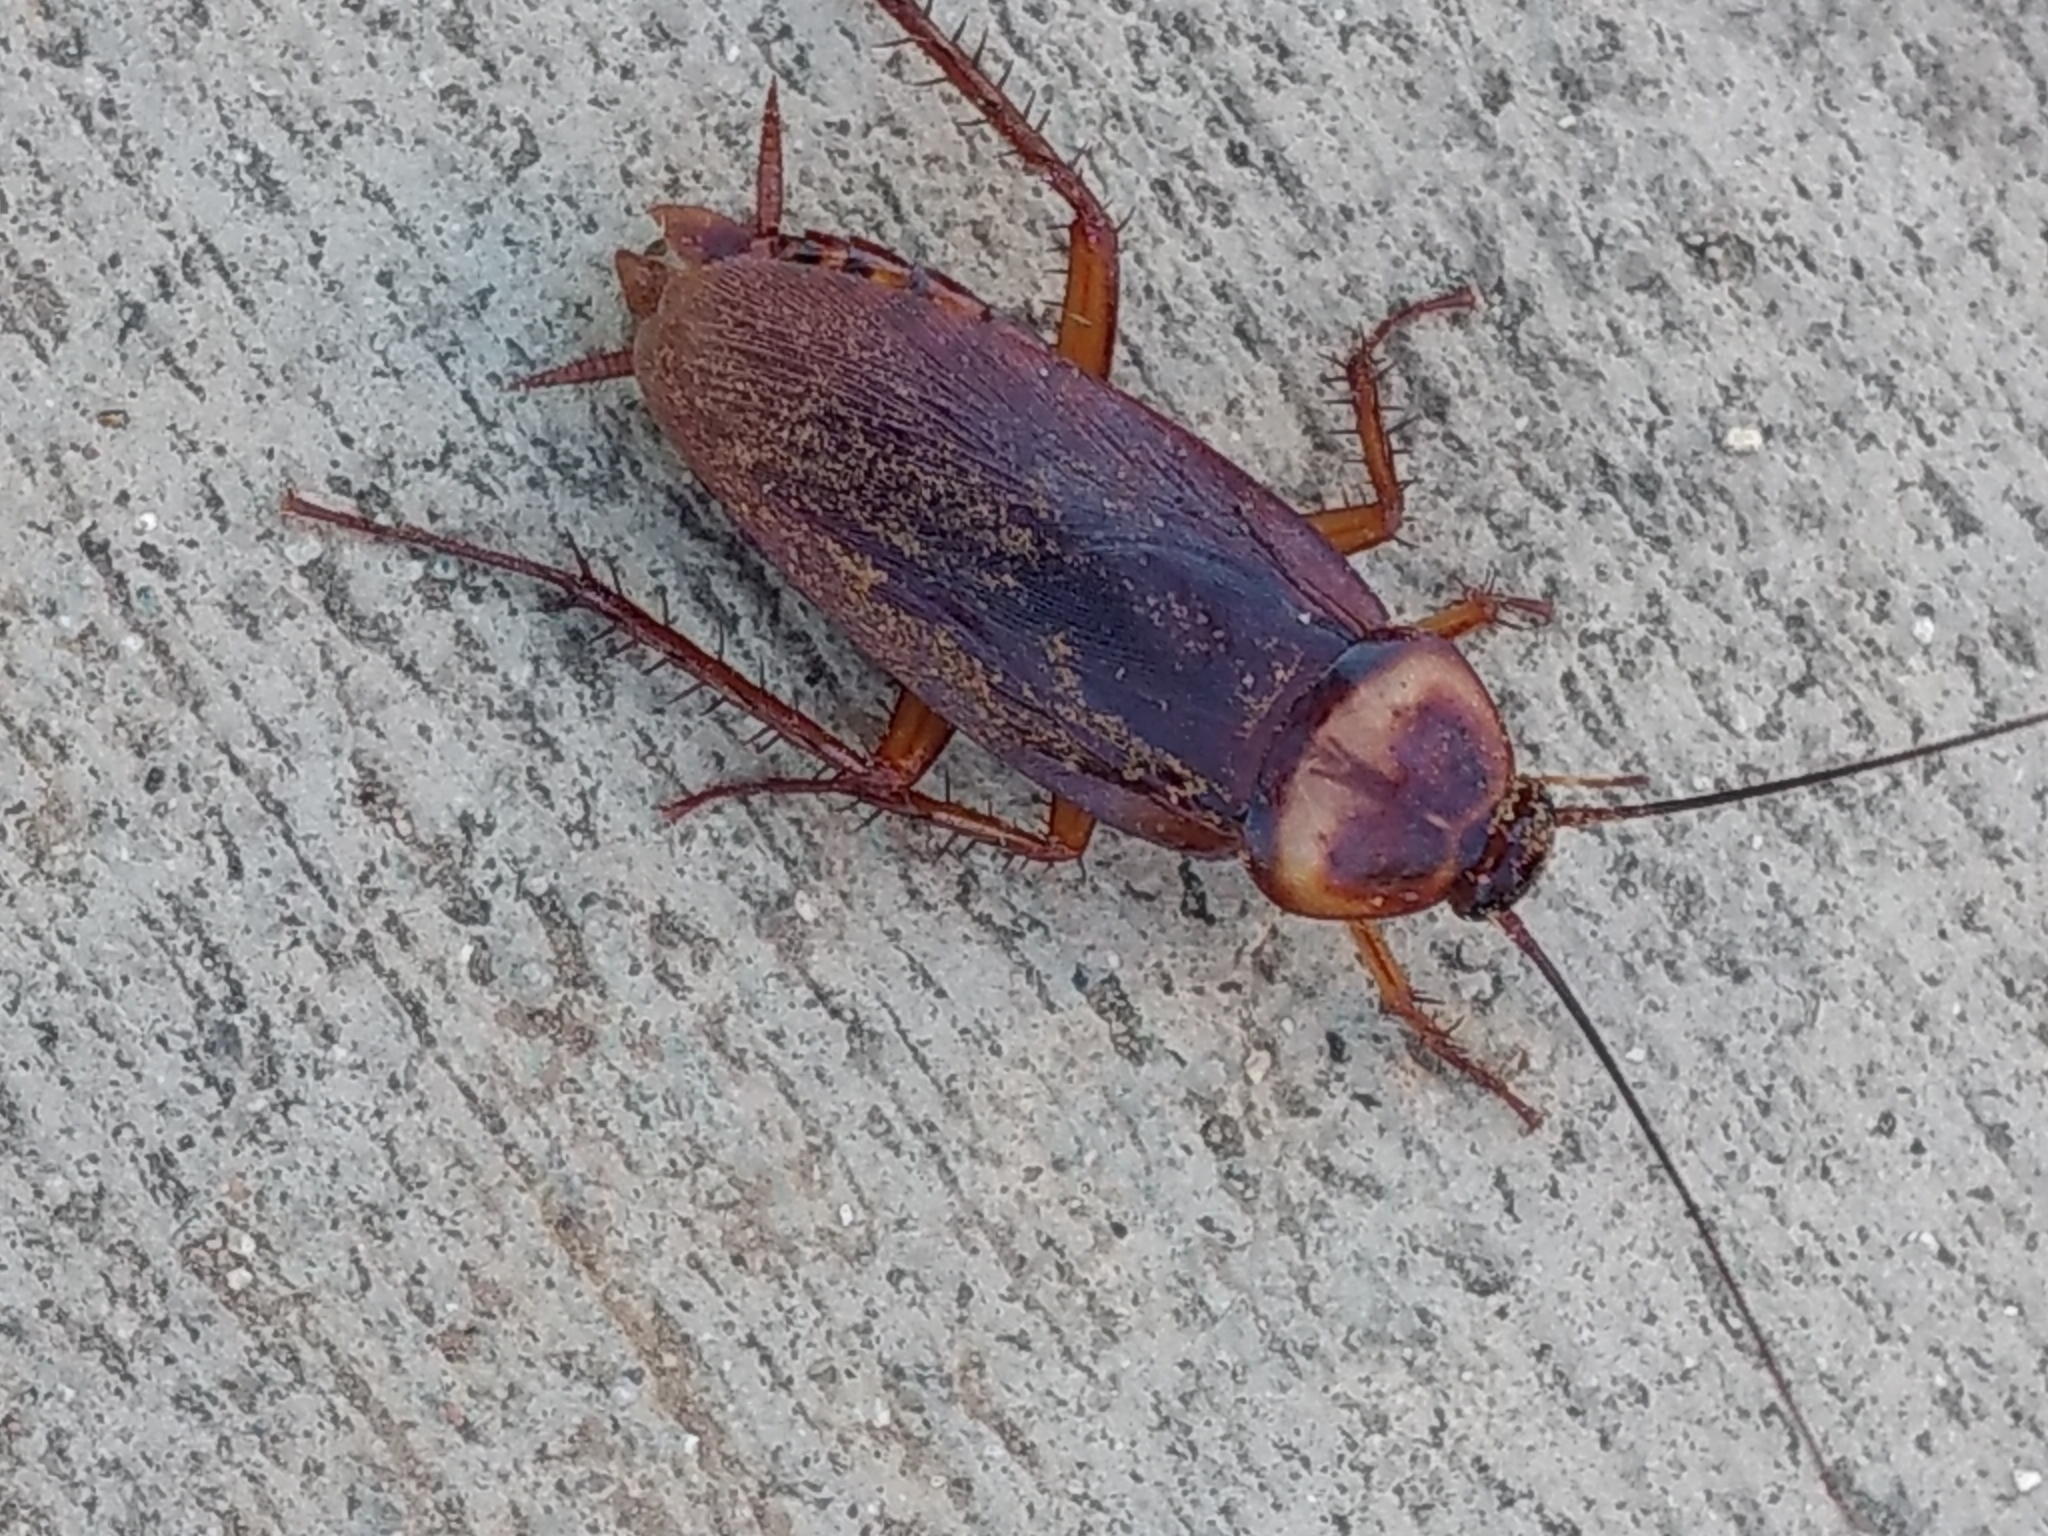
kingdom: Animalia
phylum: Arthropoda
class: Insecta
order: Blattodea
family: Blattidae
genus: Periplaneta
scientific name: Periplaneta americana
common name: American cockroach
